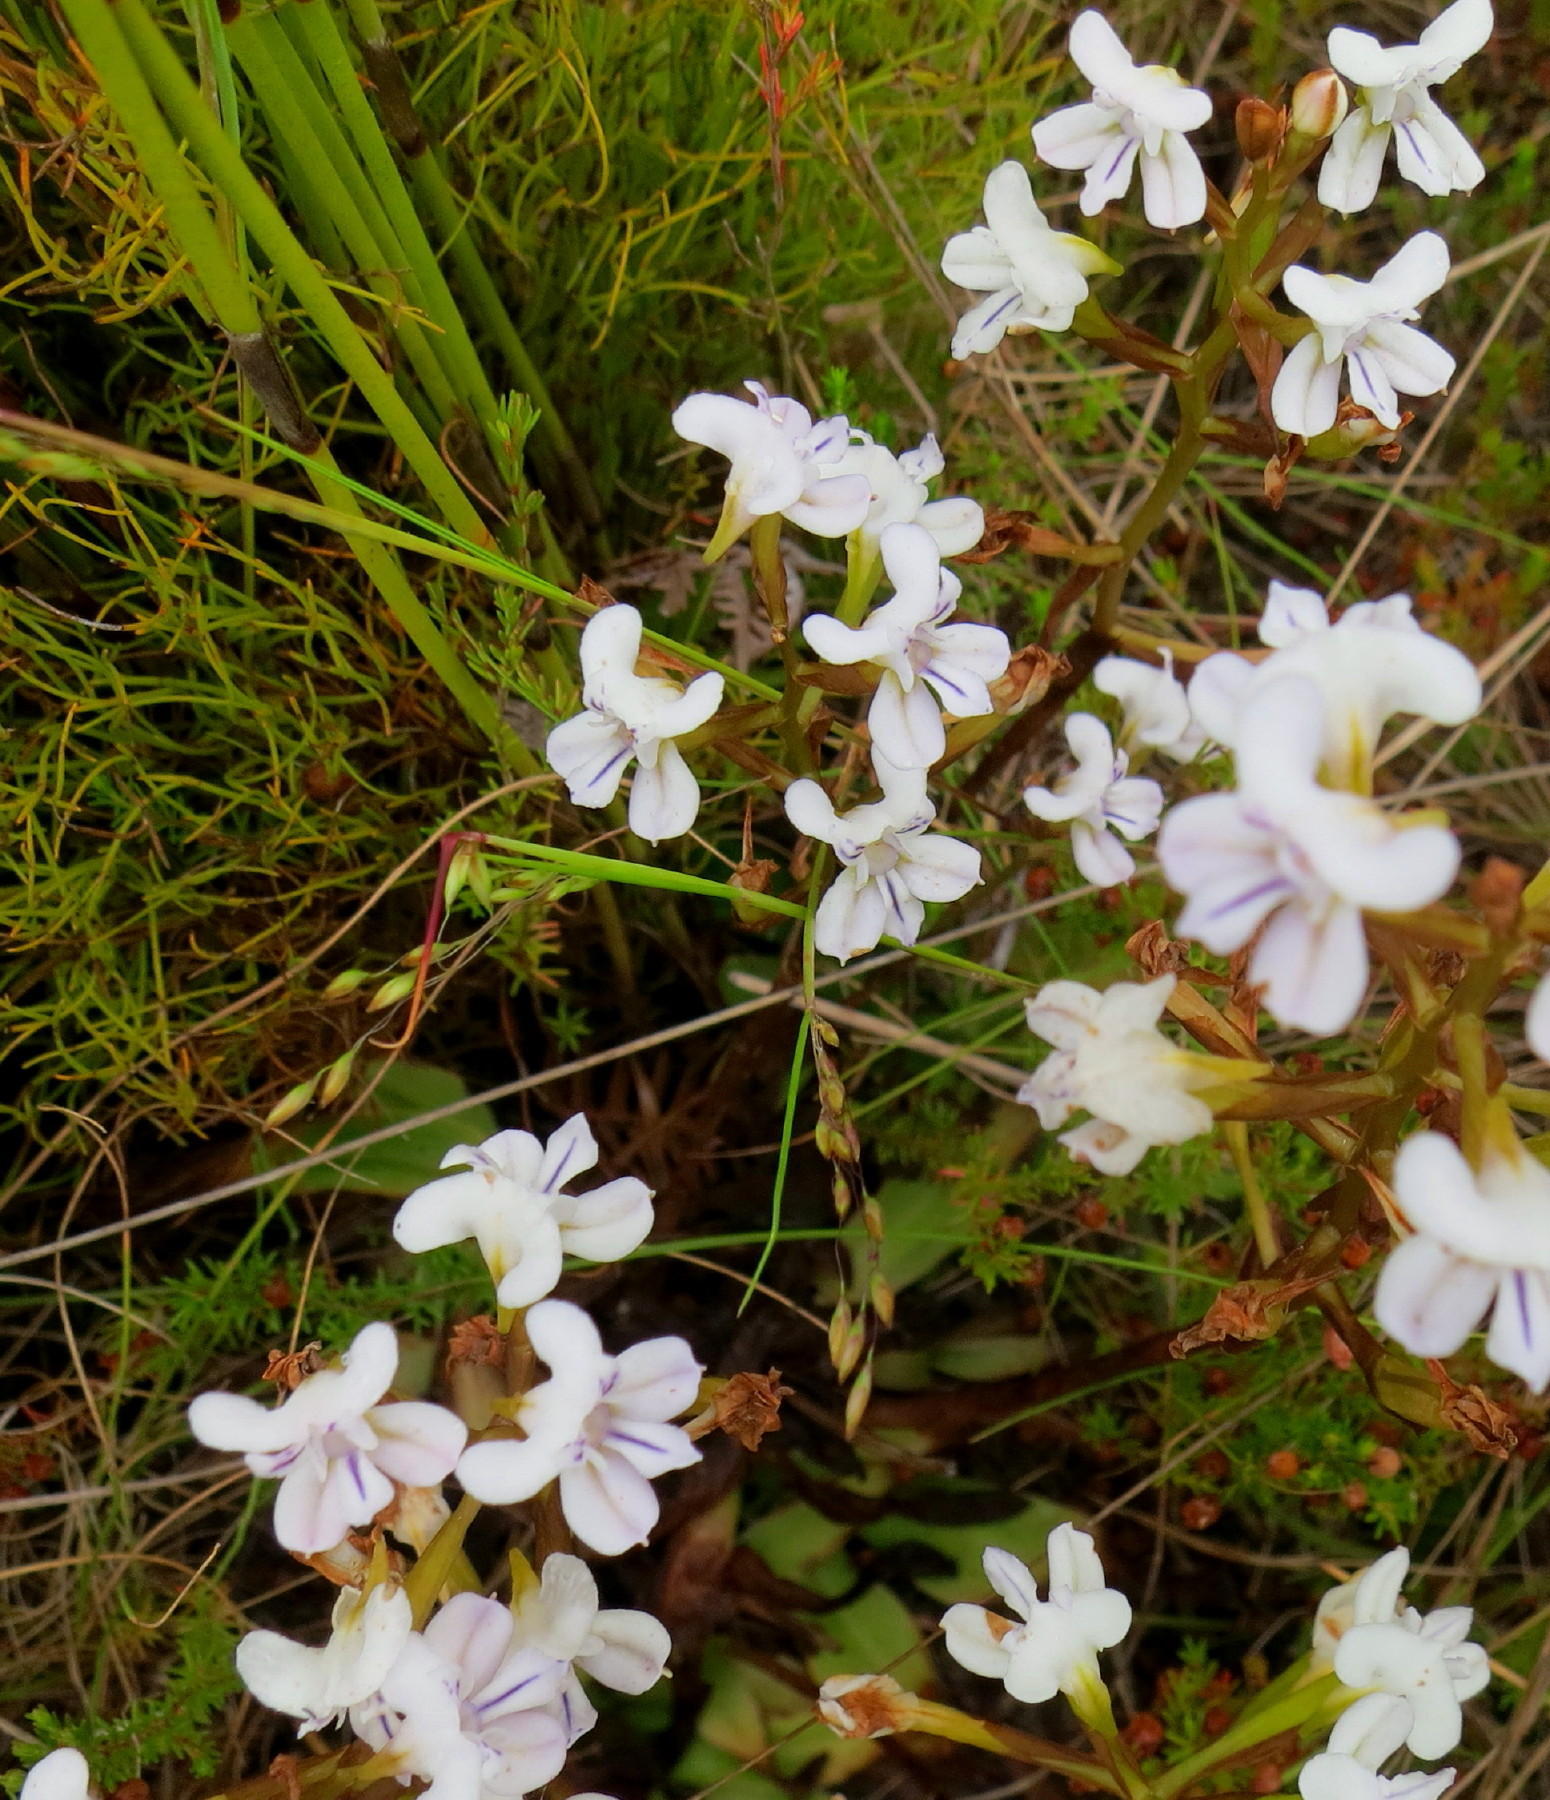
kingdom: Plantae
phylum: Tracheophyta
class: Liliopsida
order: Asparagales
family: Orchidaceae
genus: Disa
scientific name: Disa sagittalis
